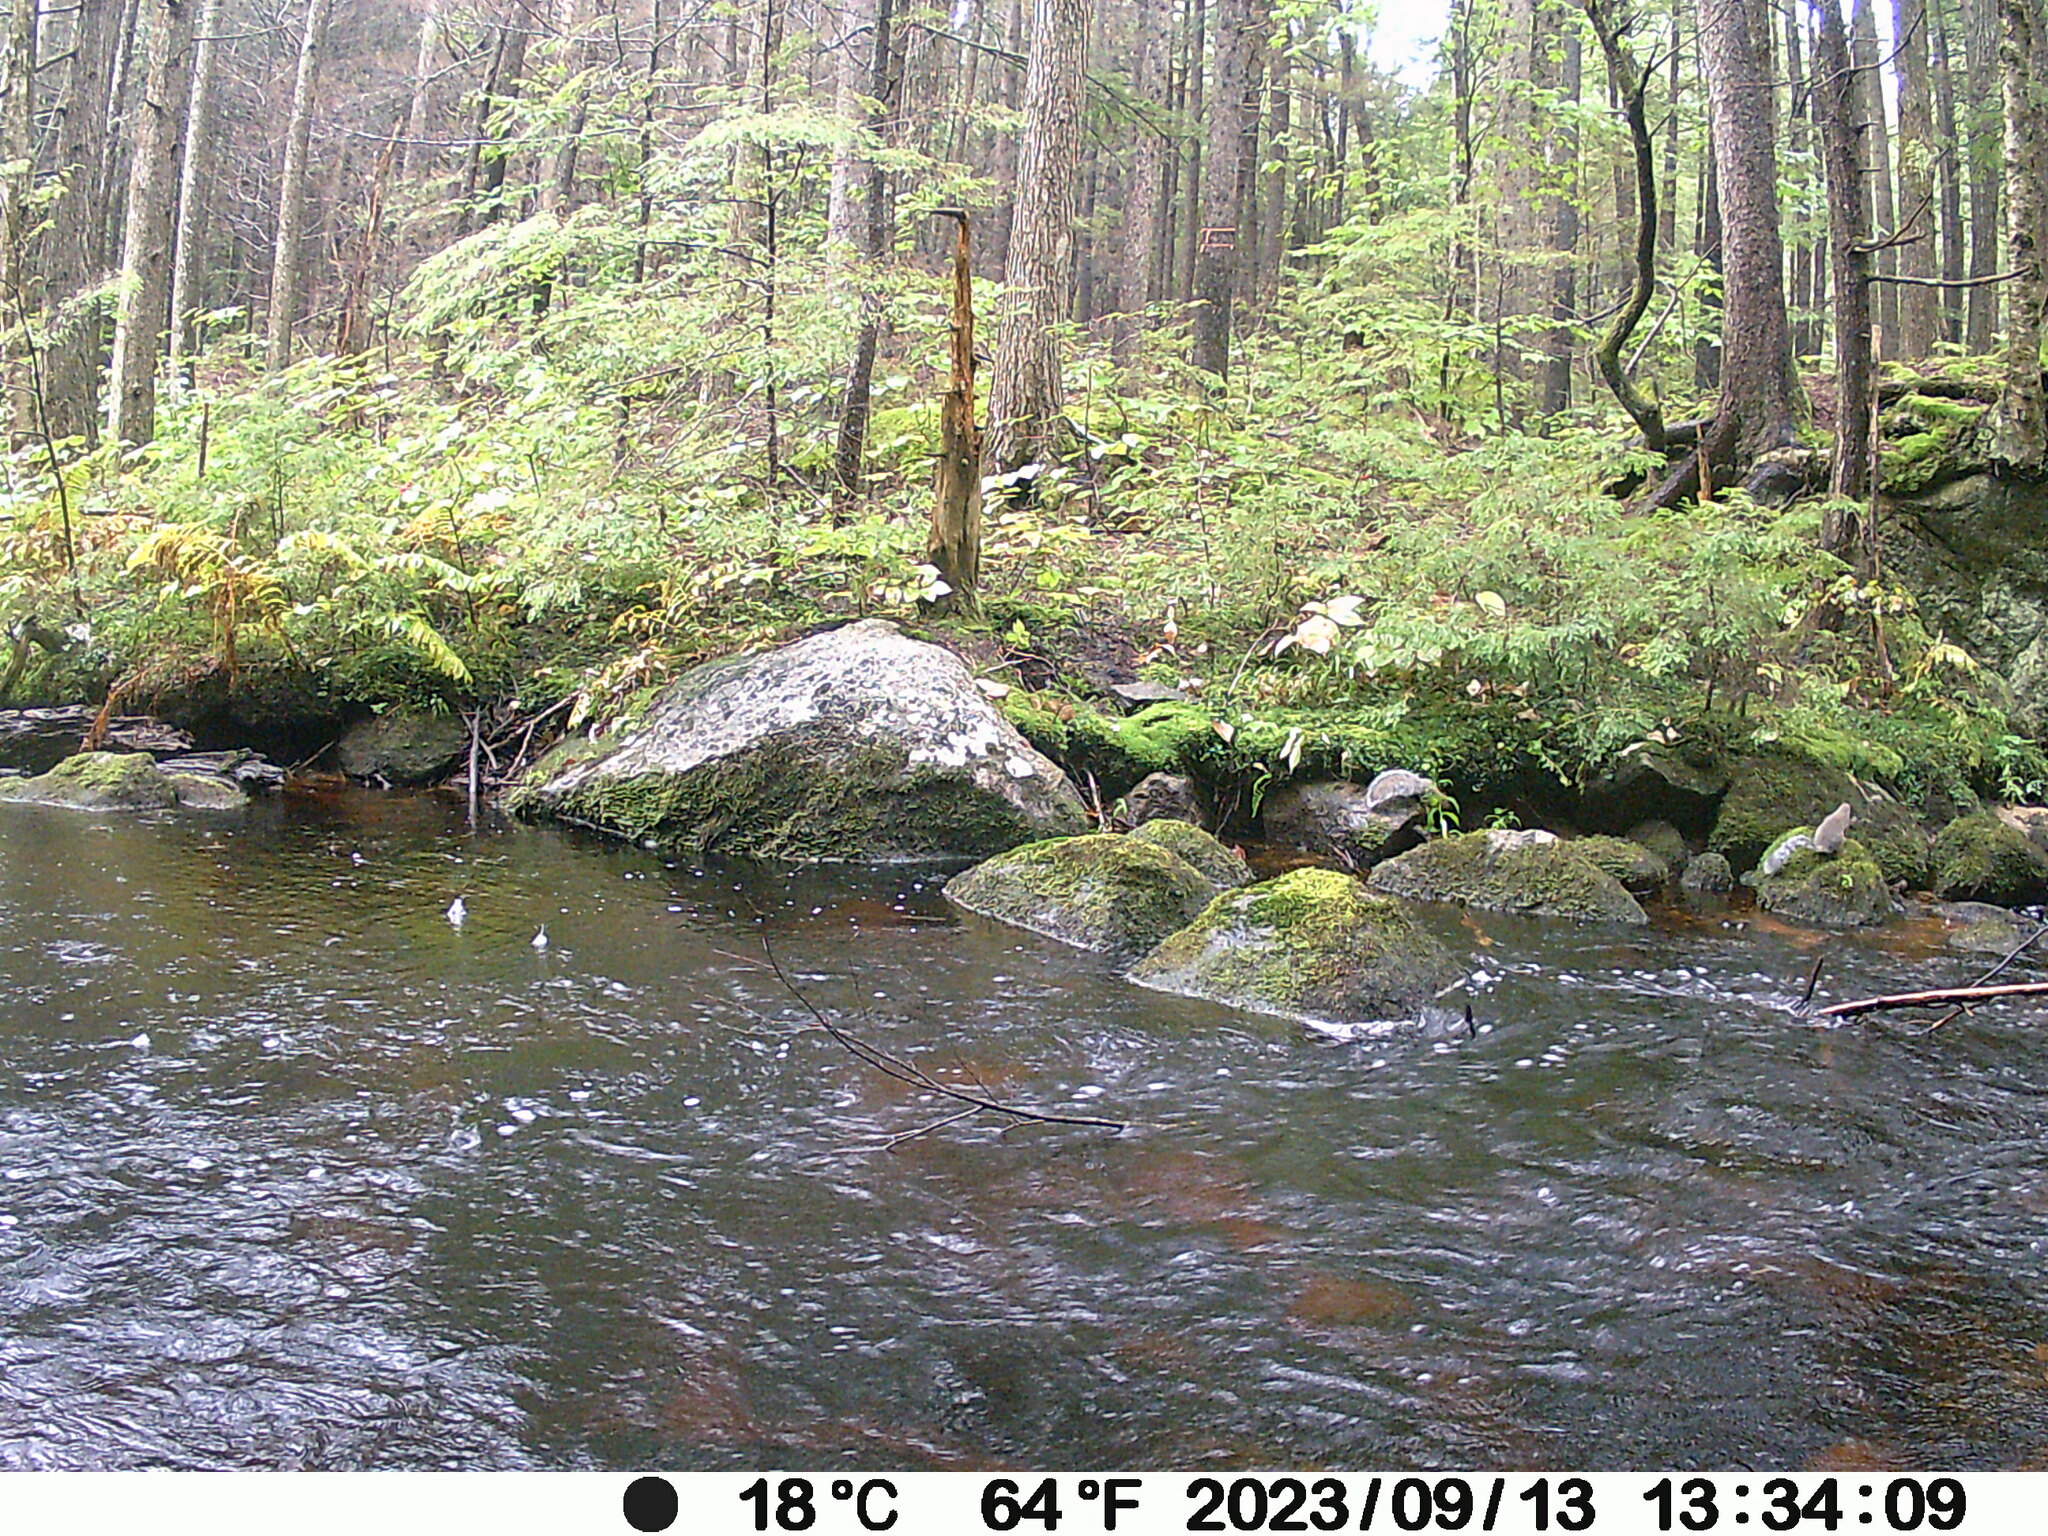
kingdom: Animalia
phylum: Chordata
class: Mammalia
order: Rodentia
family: Sciuridae
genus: Sciurus
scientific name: Sciurus carolinensis
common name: Eastern gray squirrel
